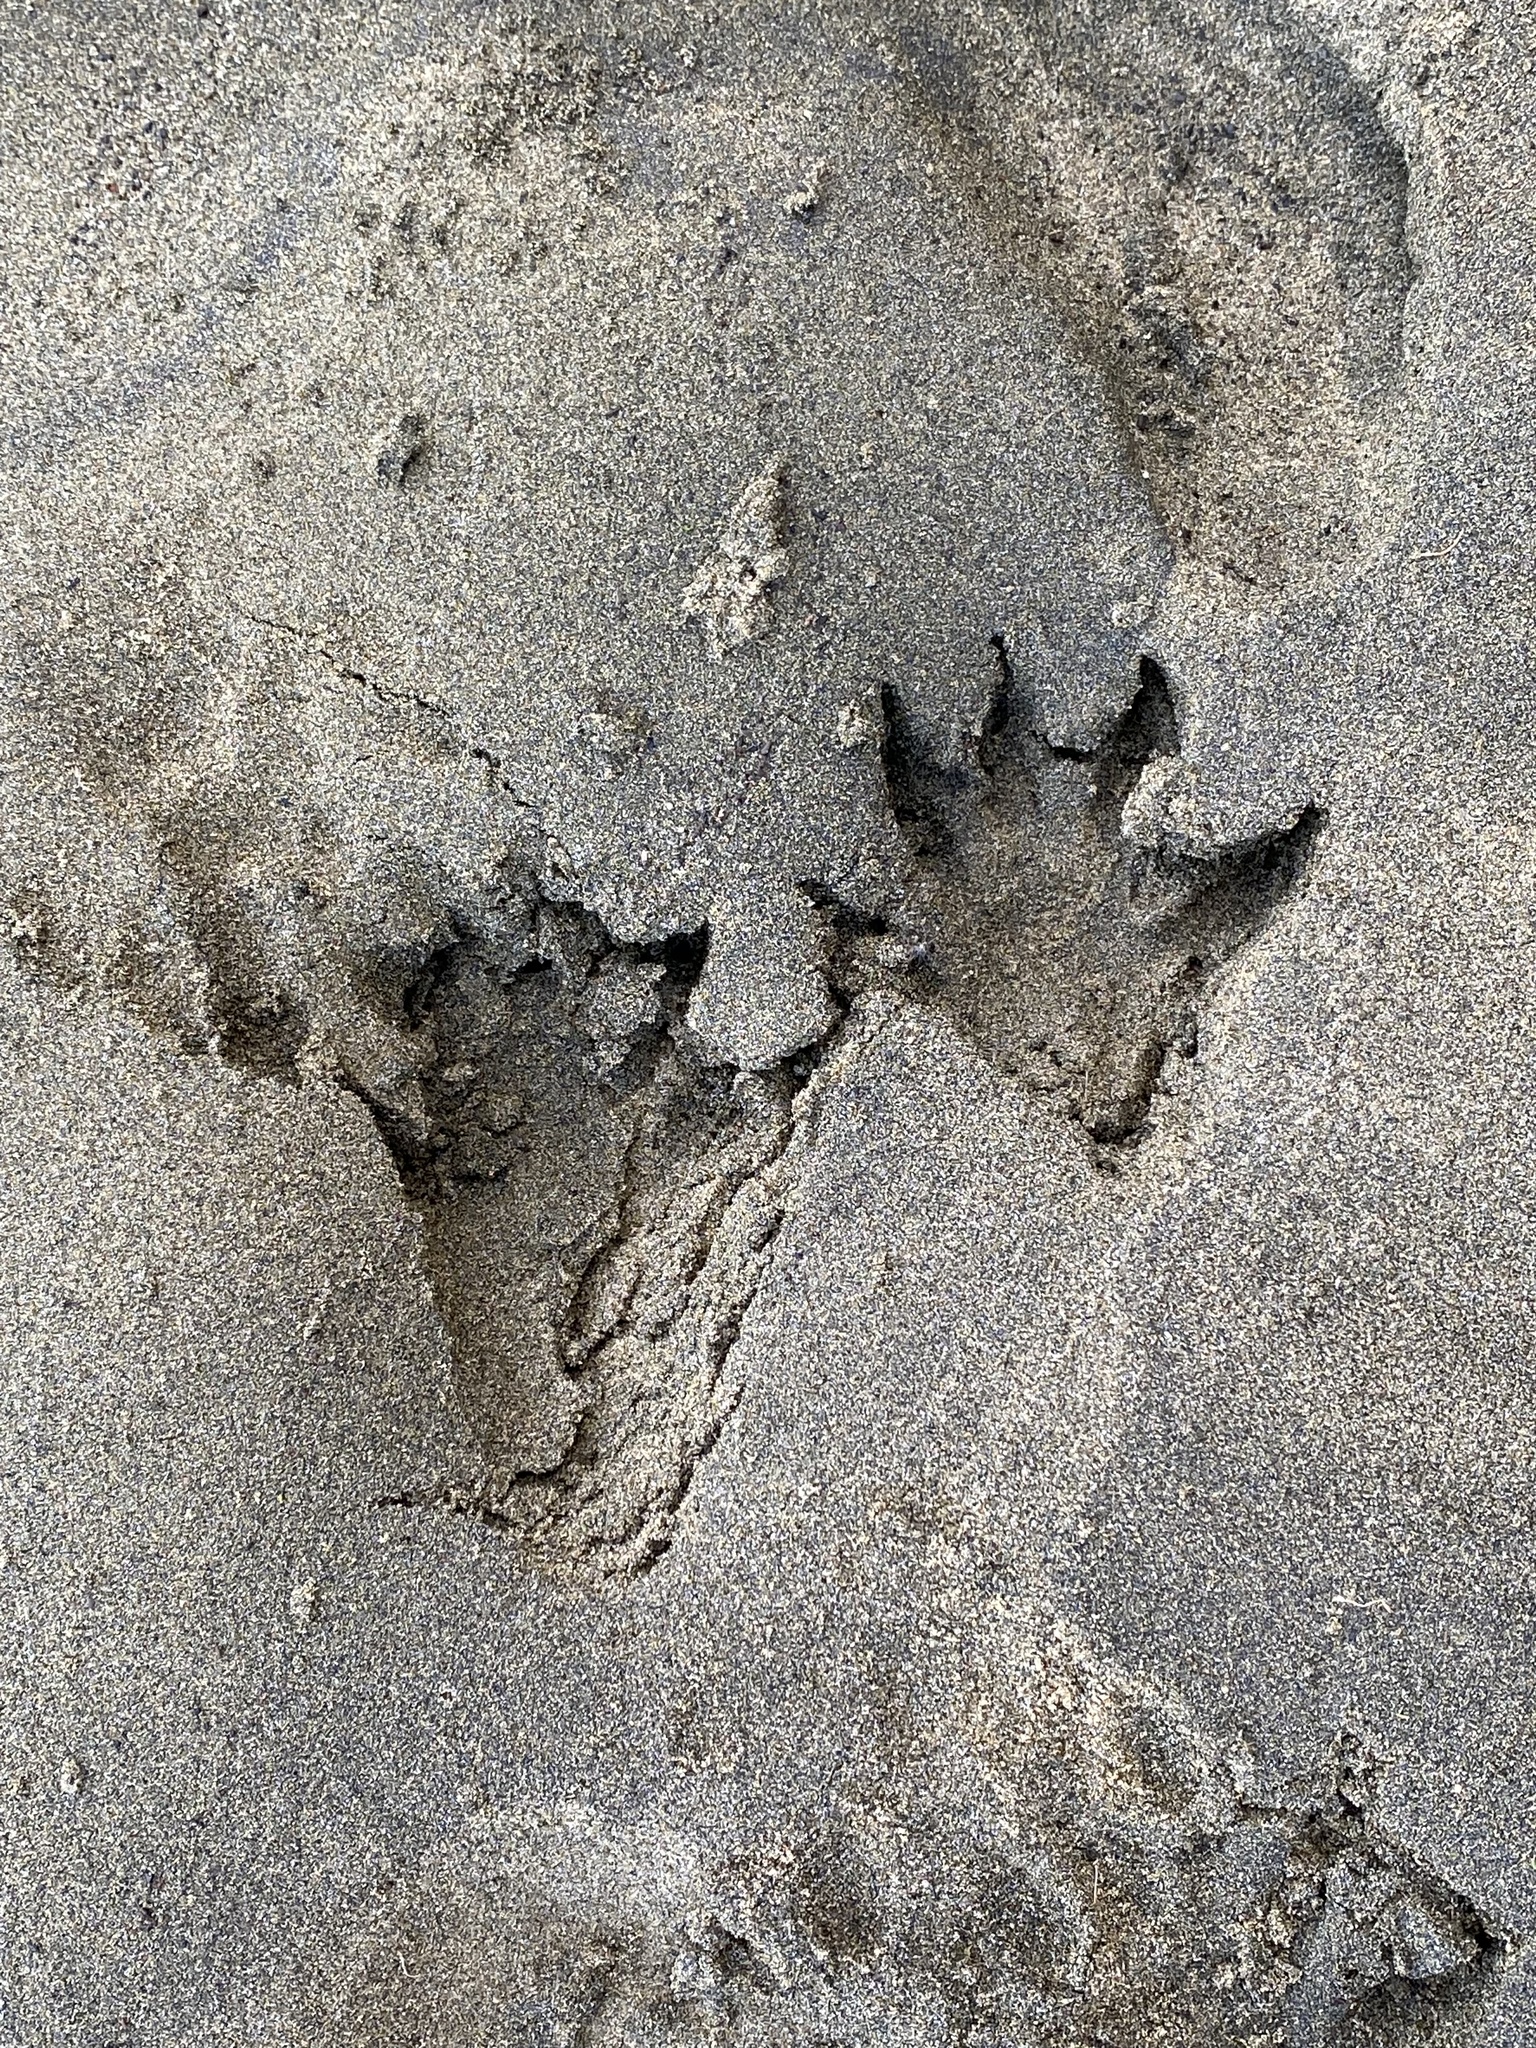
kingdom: Animalia
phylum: Chordata
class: Mammalia
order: Carnivora
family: Procyonidae
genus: Procyon
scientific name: Procyon lotor
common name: Raccoon
